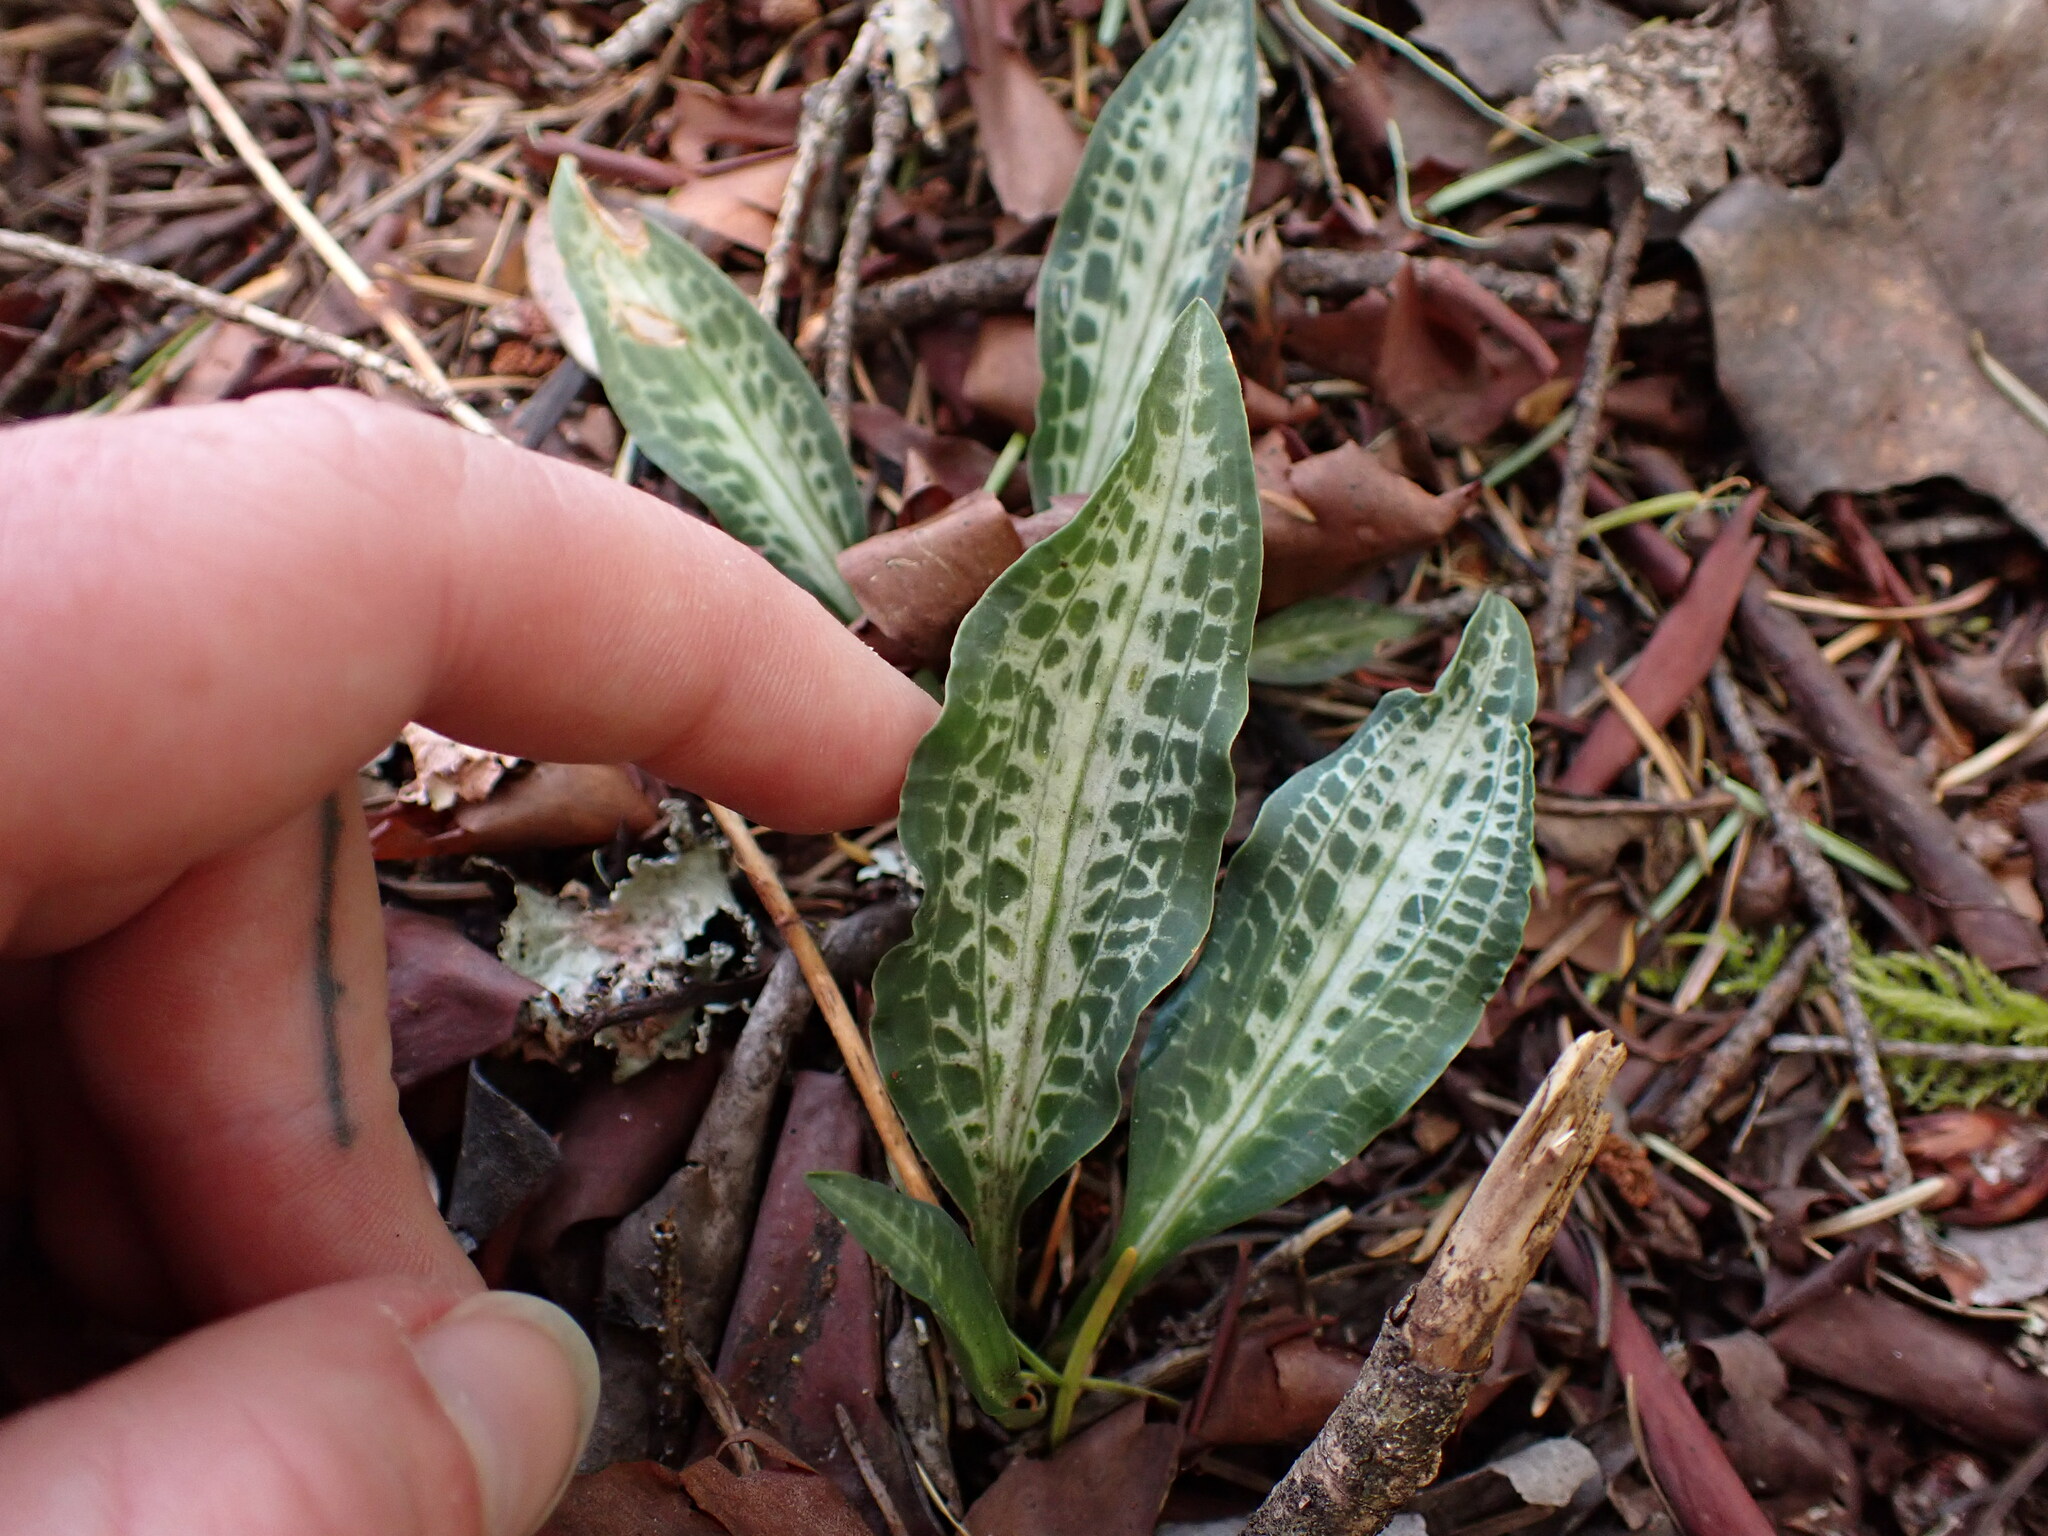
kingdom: Plantae
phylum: Tracheophyta
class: Liliopsida
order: Asparagales
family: Orchidaceae
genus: Goodyera
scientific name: Goodyera oblongifolia
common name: Giant rattlesnake-plantain
